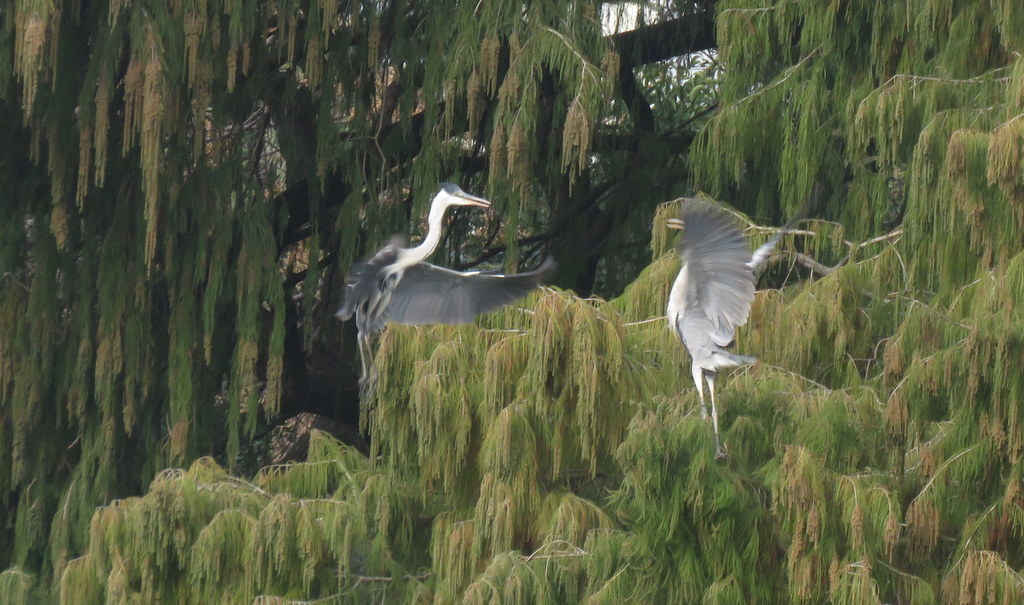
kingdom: Animalia
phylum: Chordata
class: Aves
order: Pelecaniformes
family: Ardeidae
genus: Ardea
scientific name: Ardea cocoi
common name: Cocoi heron
